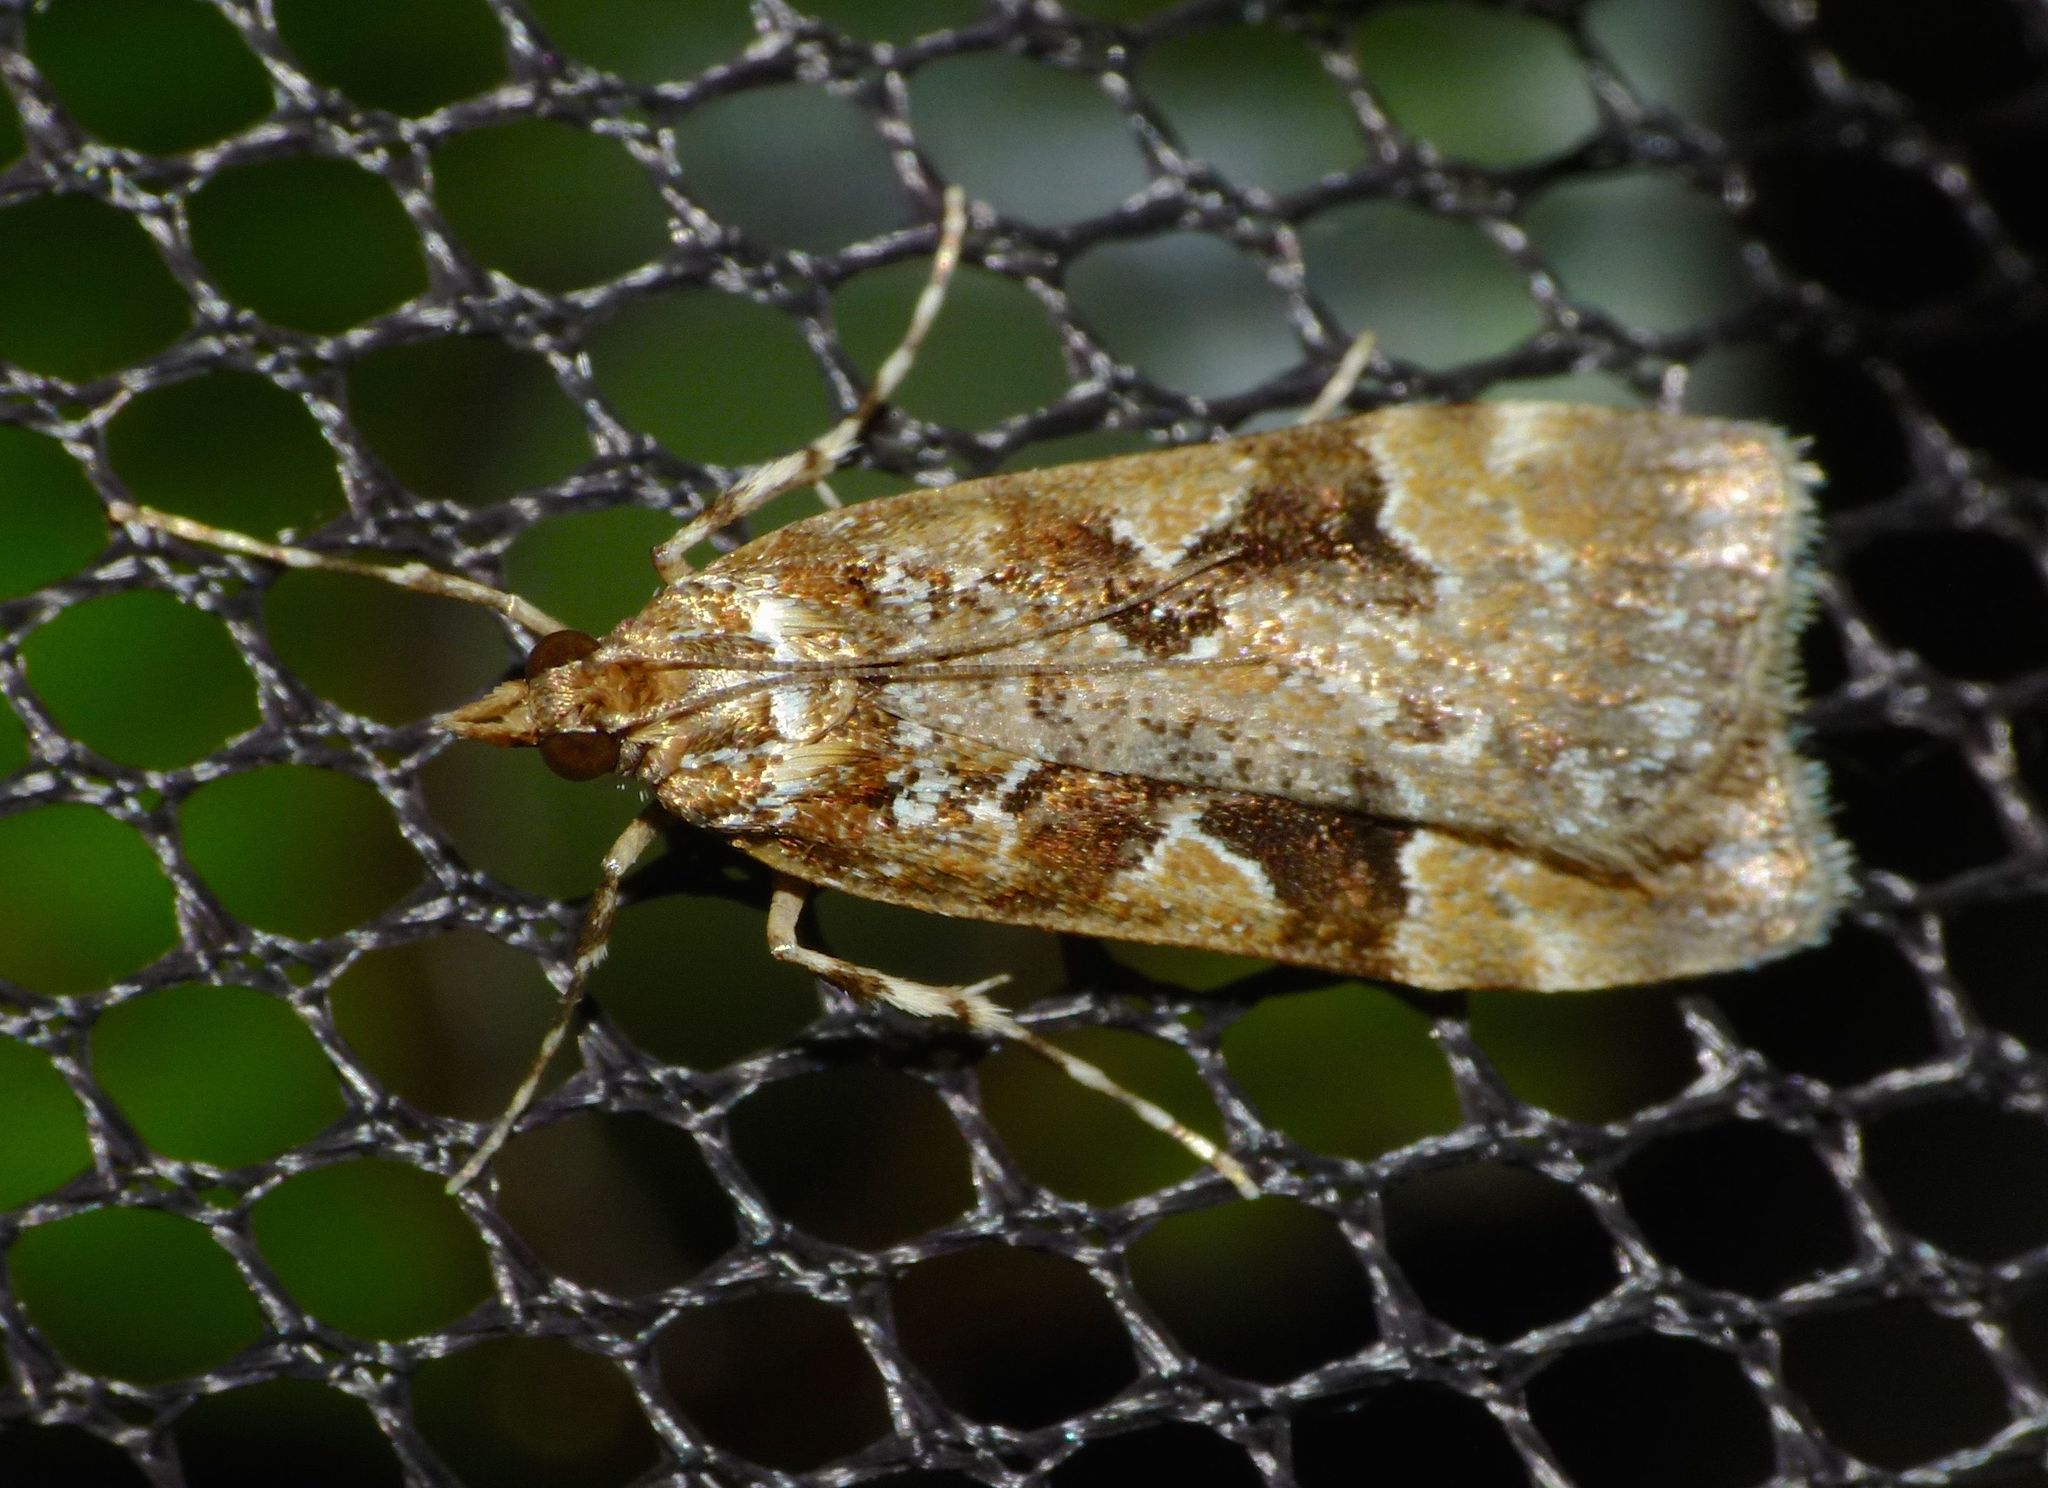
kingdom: Animalia
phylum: Arthropoda
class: Insecta
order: Lepidoptera
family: Crambidae
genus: Scoparia
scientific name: Scoparia ustimacula
